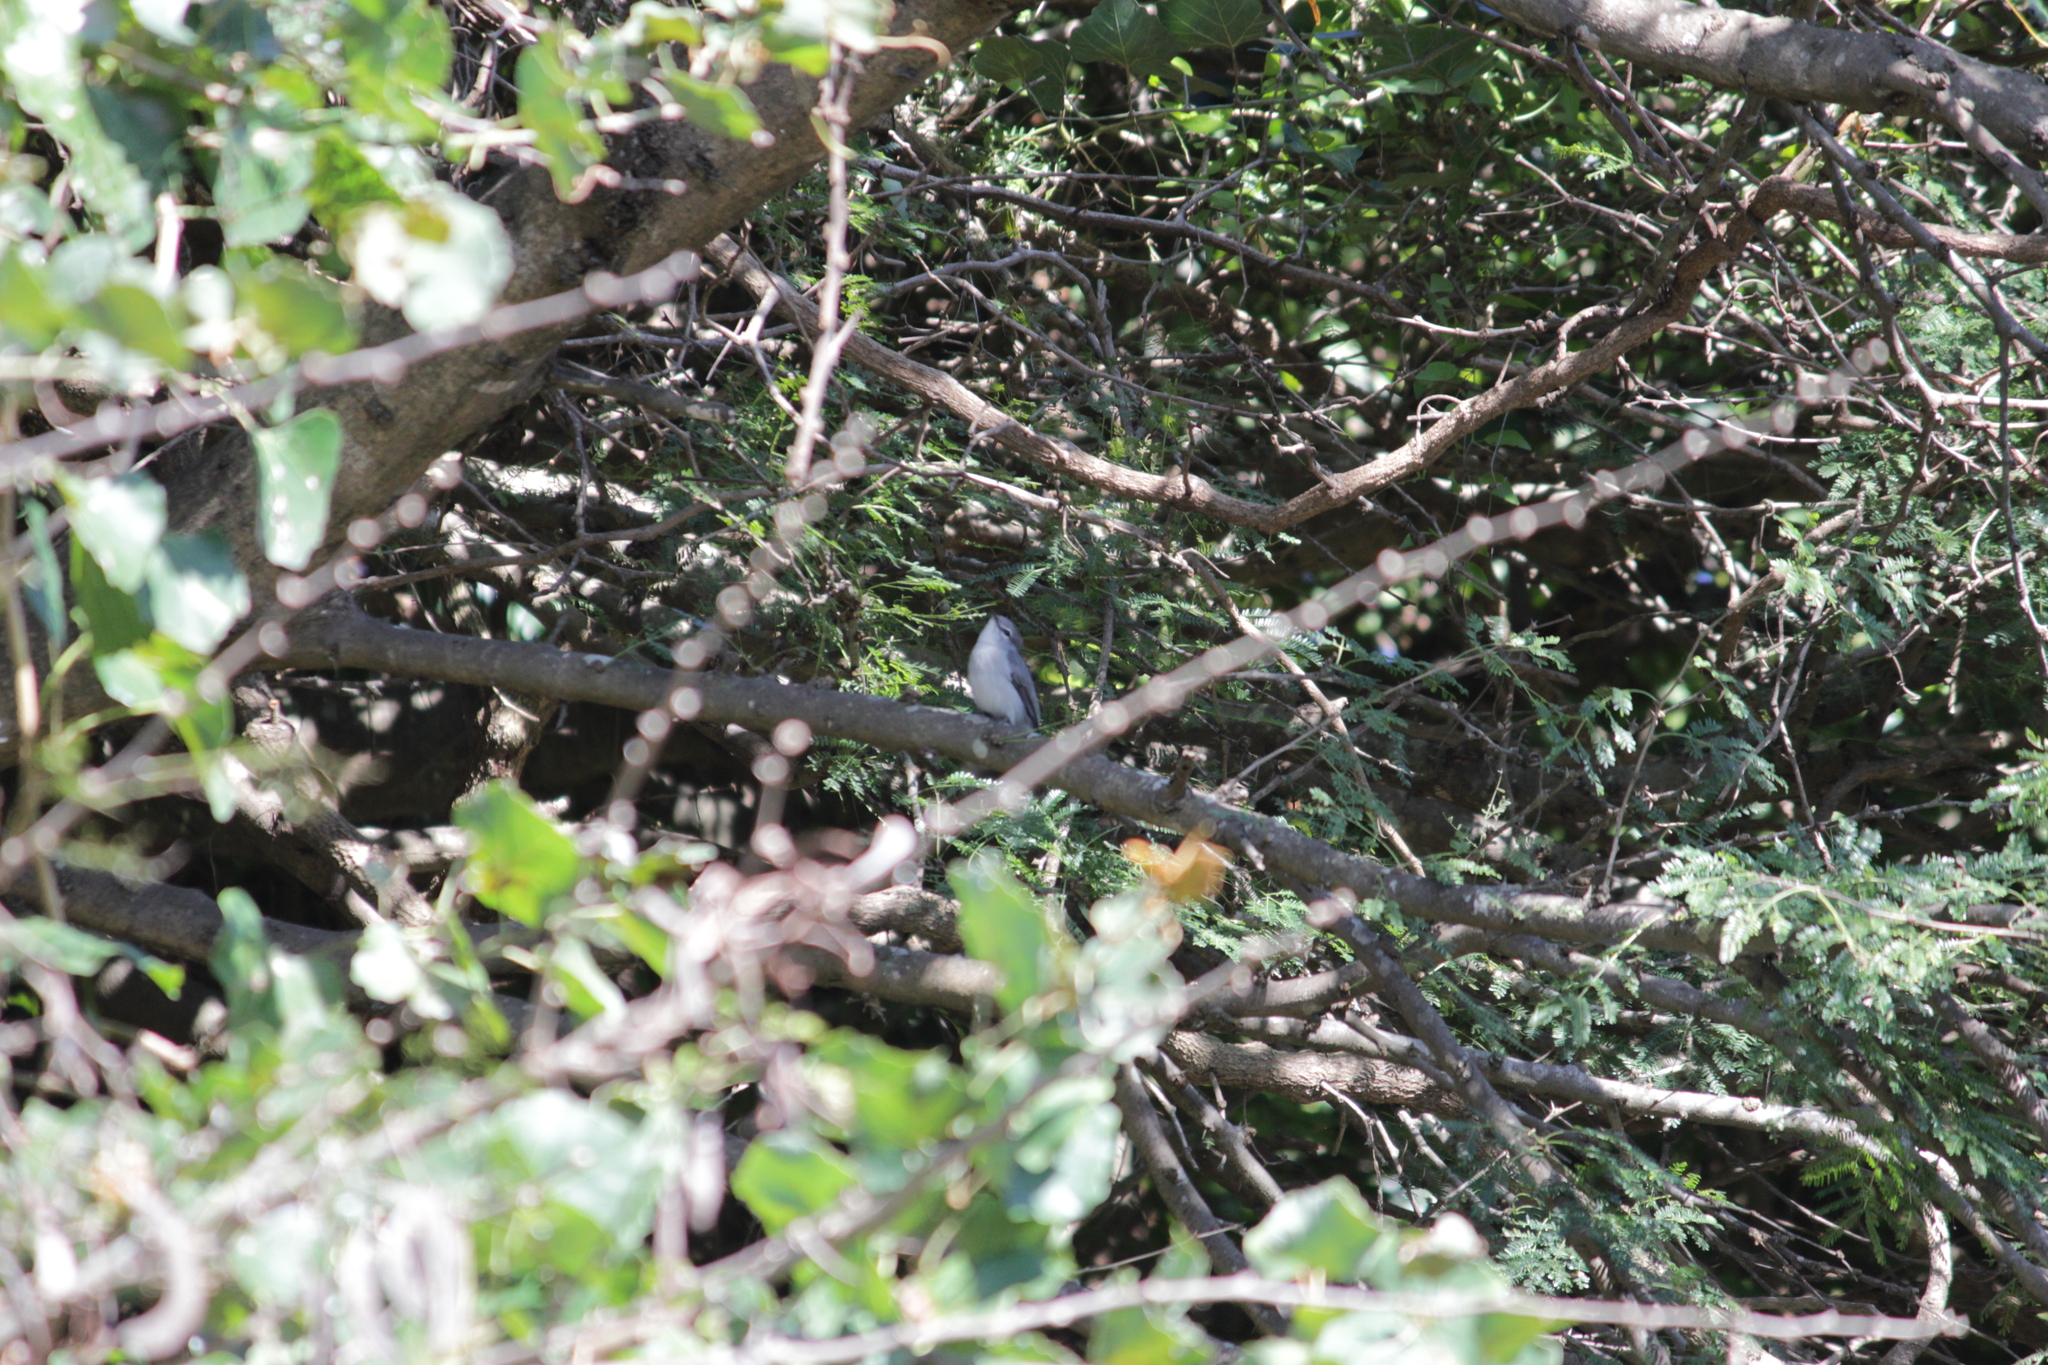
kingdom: Animalia
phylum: Chordata
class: Aves
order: Passeriformes
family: Muscicapidae
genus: Muscicapa
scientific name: Muscicapa caerulescens
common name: Ashy flycatcher
